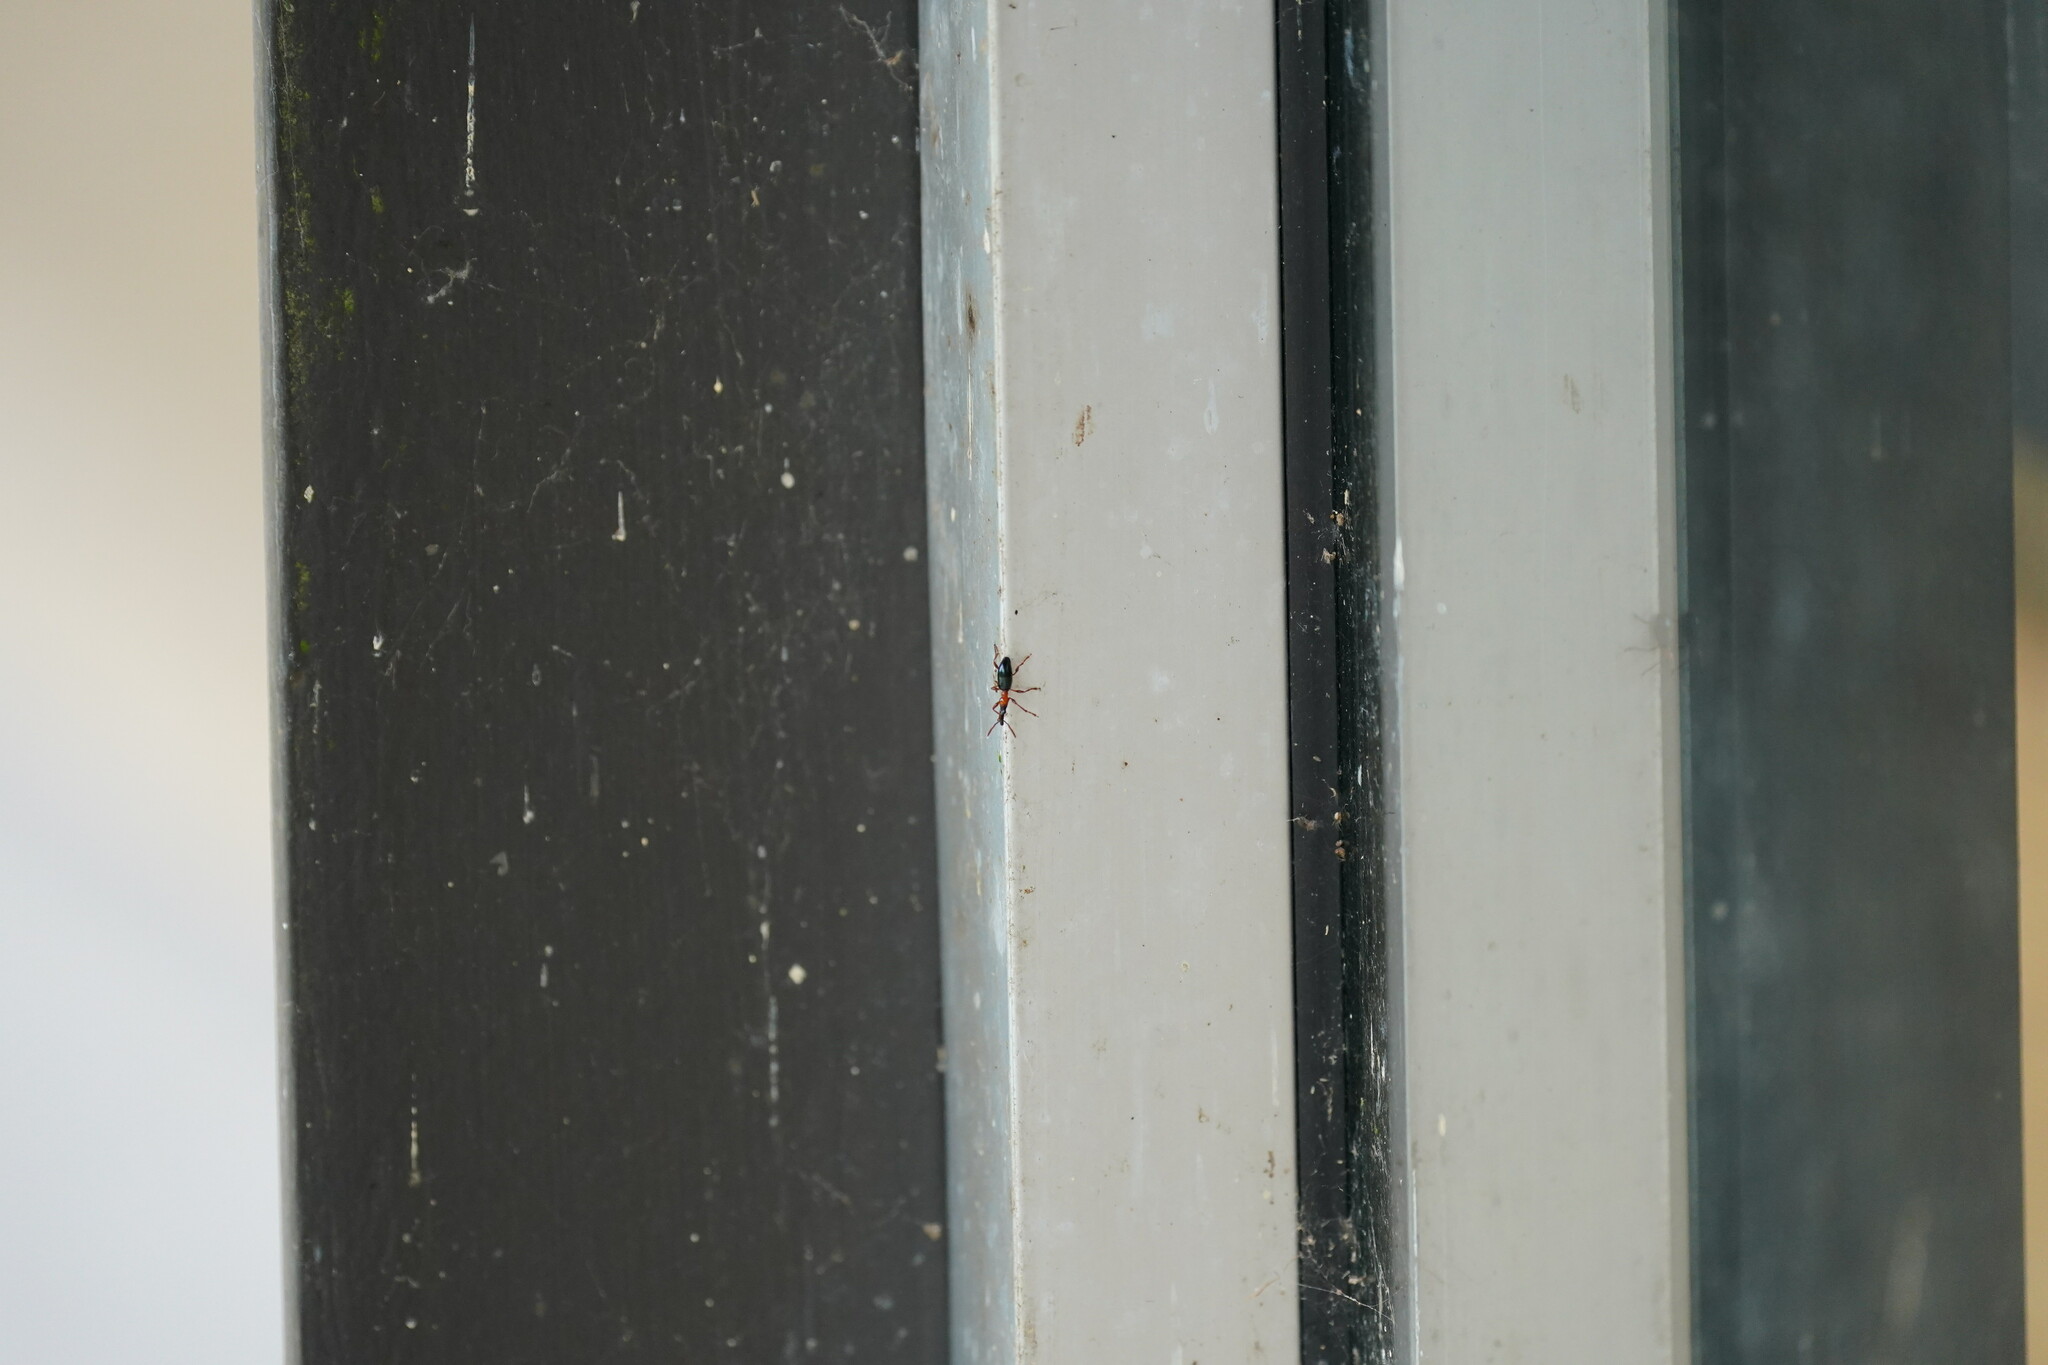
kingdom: Animalia
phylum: Arthropoda
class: Insecta
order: Coleoptera
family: Brentidae
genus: Cylas
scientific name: Cylas formicarius
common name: Sweetpotato weevil
